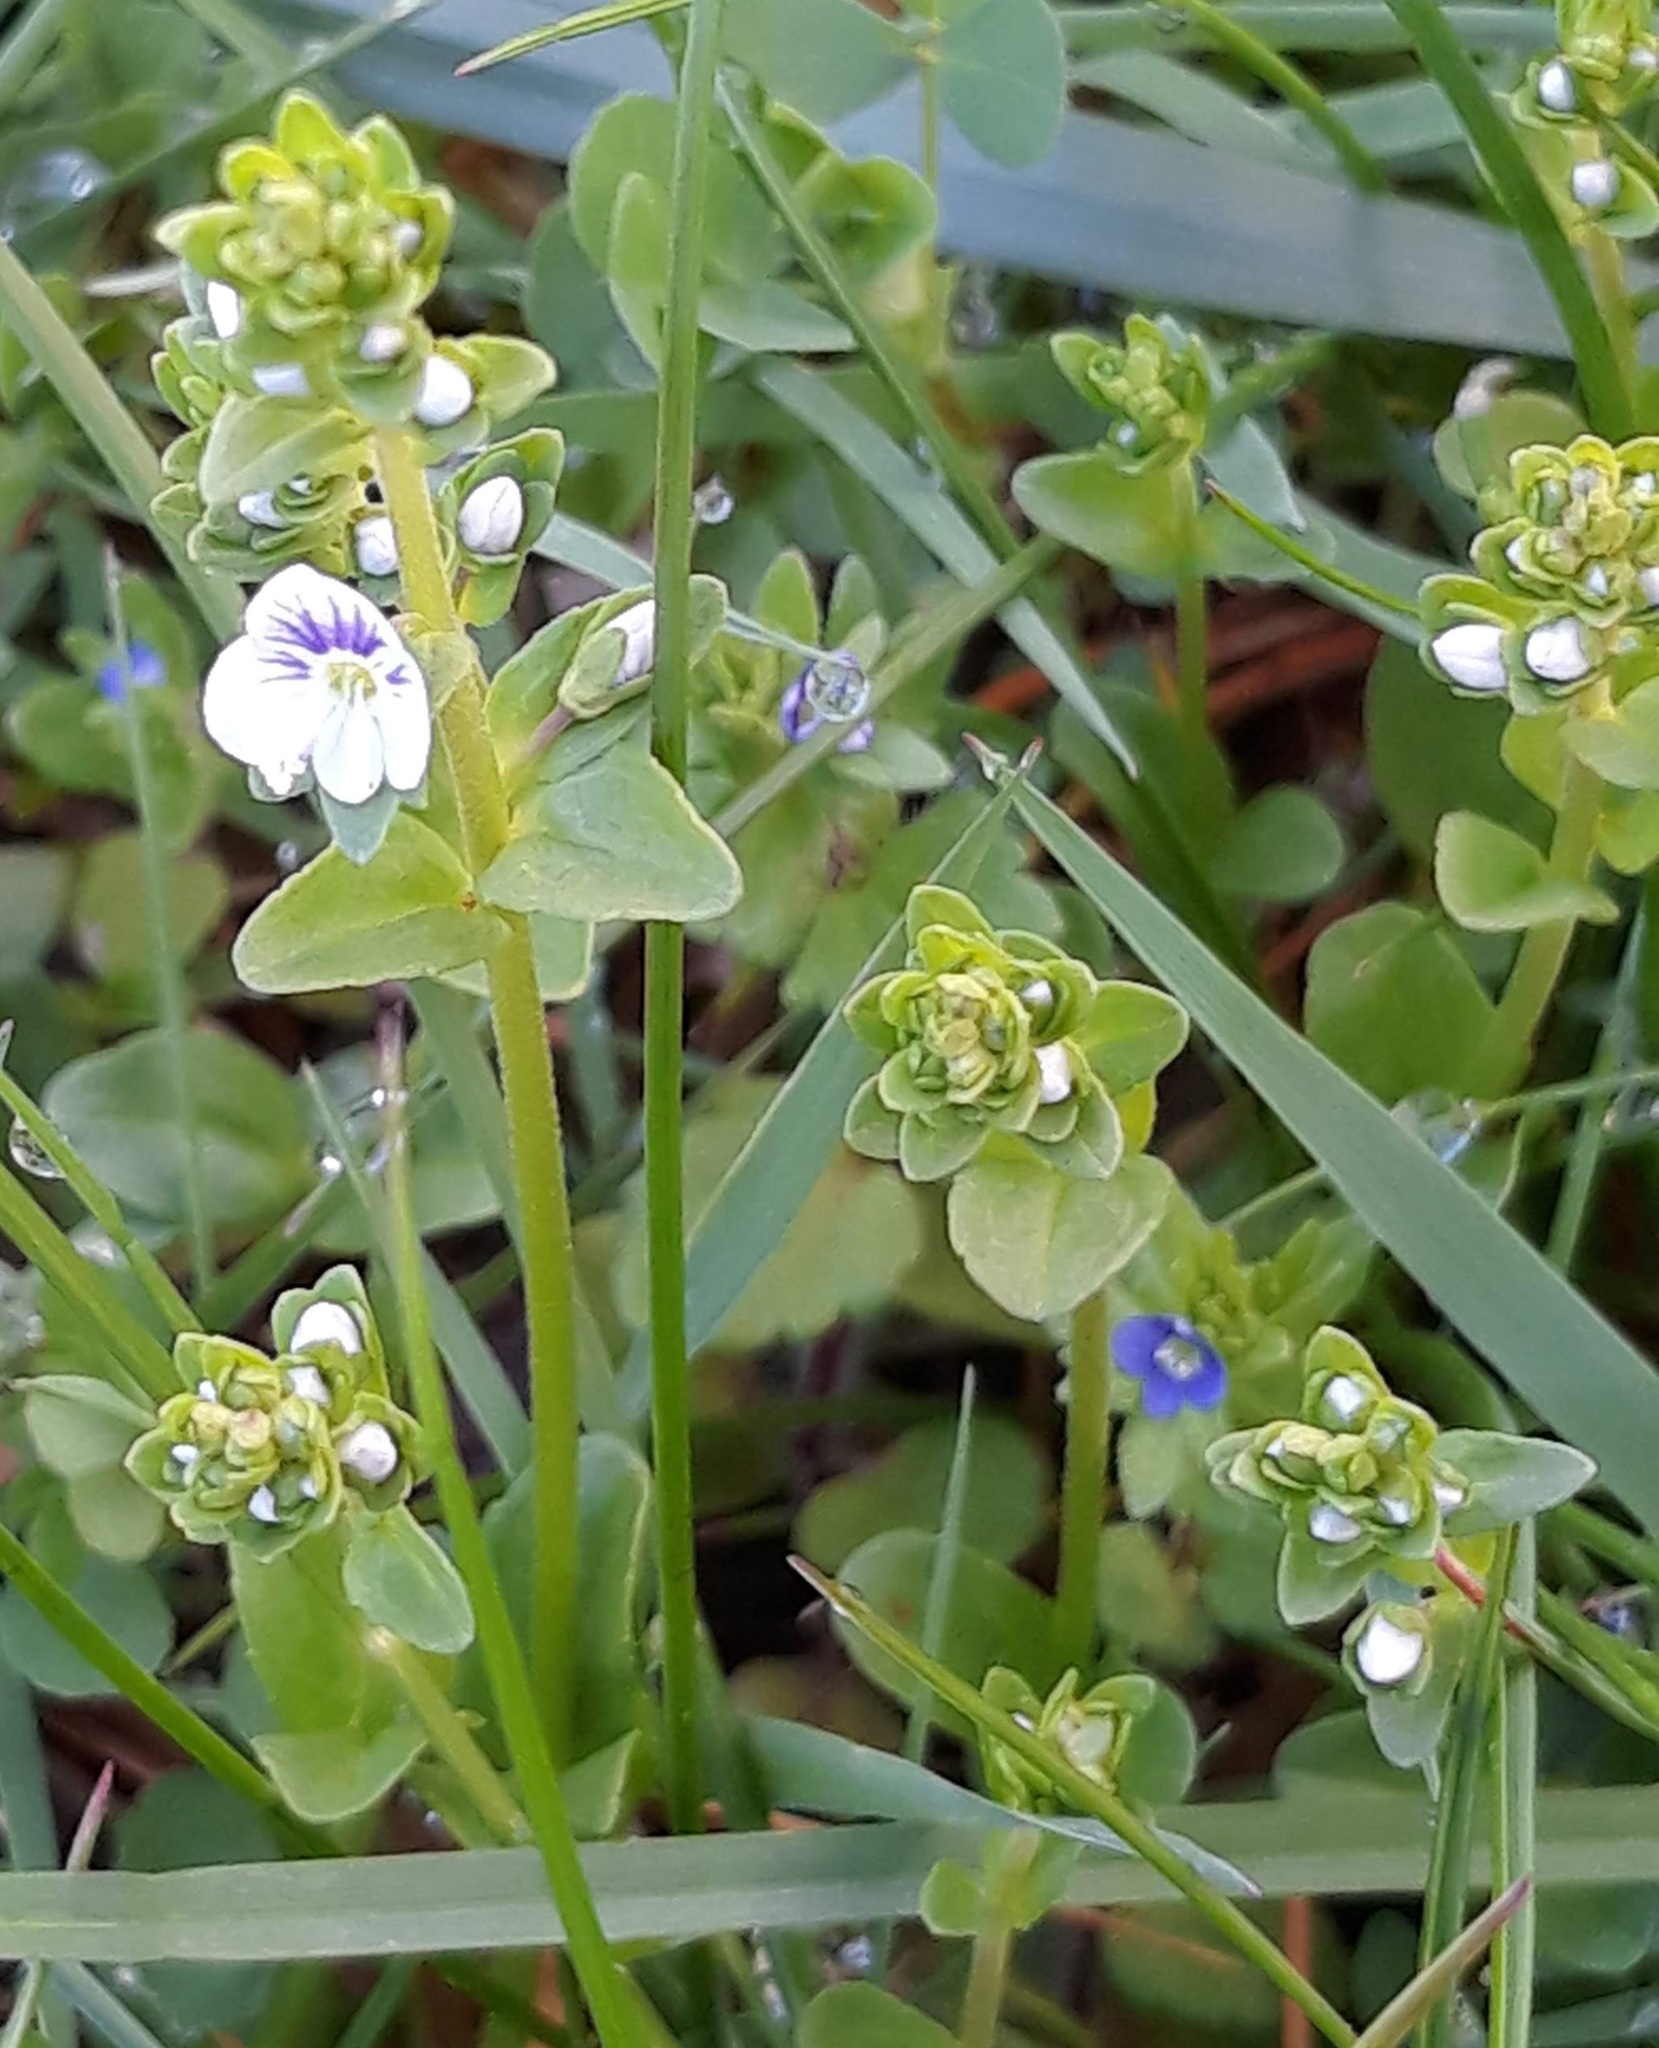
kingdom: Plantae
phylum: Tracheophyta
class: Magnoliopsida
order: Lamiales
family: Plantaginaceae
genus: Veronica
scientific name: Veronica serpyllifolia
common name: Thyme-leaved speedwell
